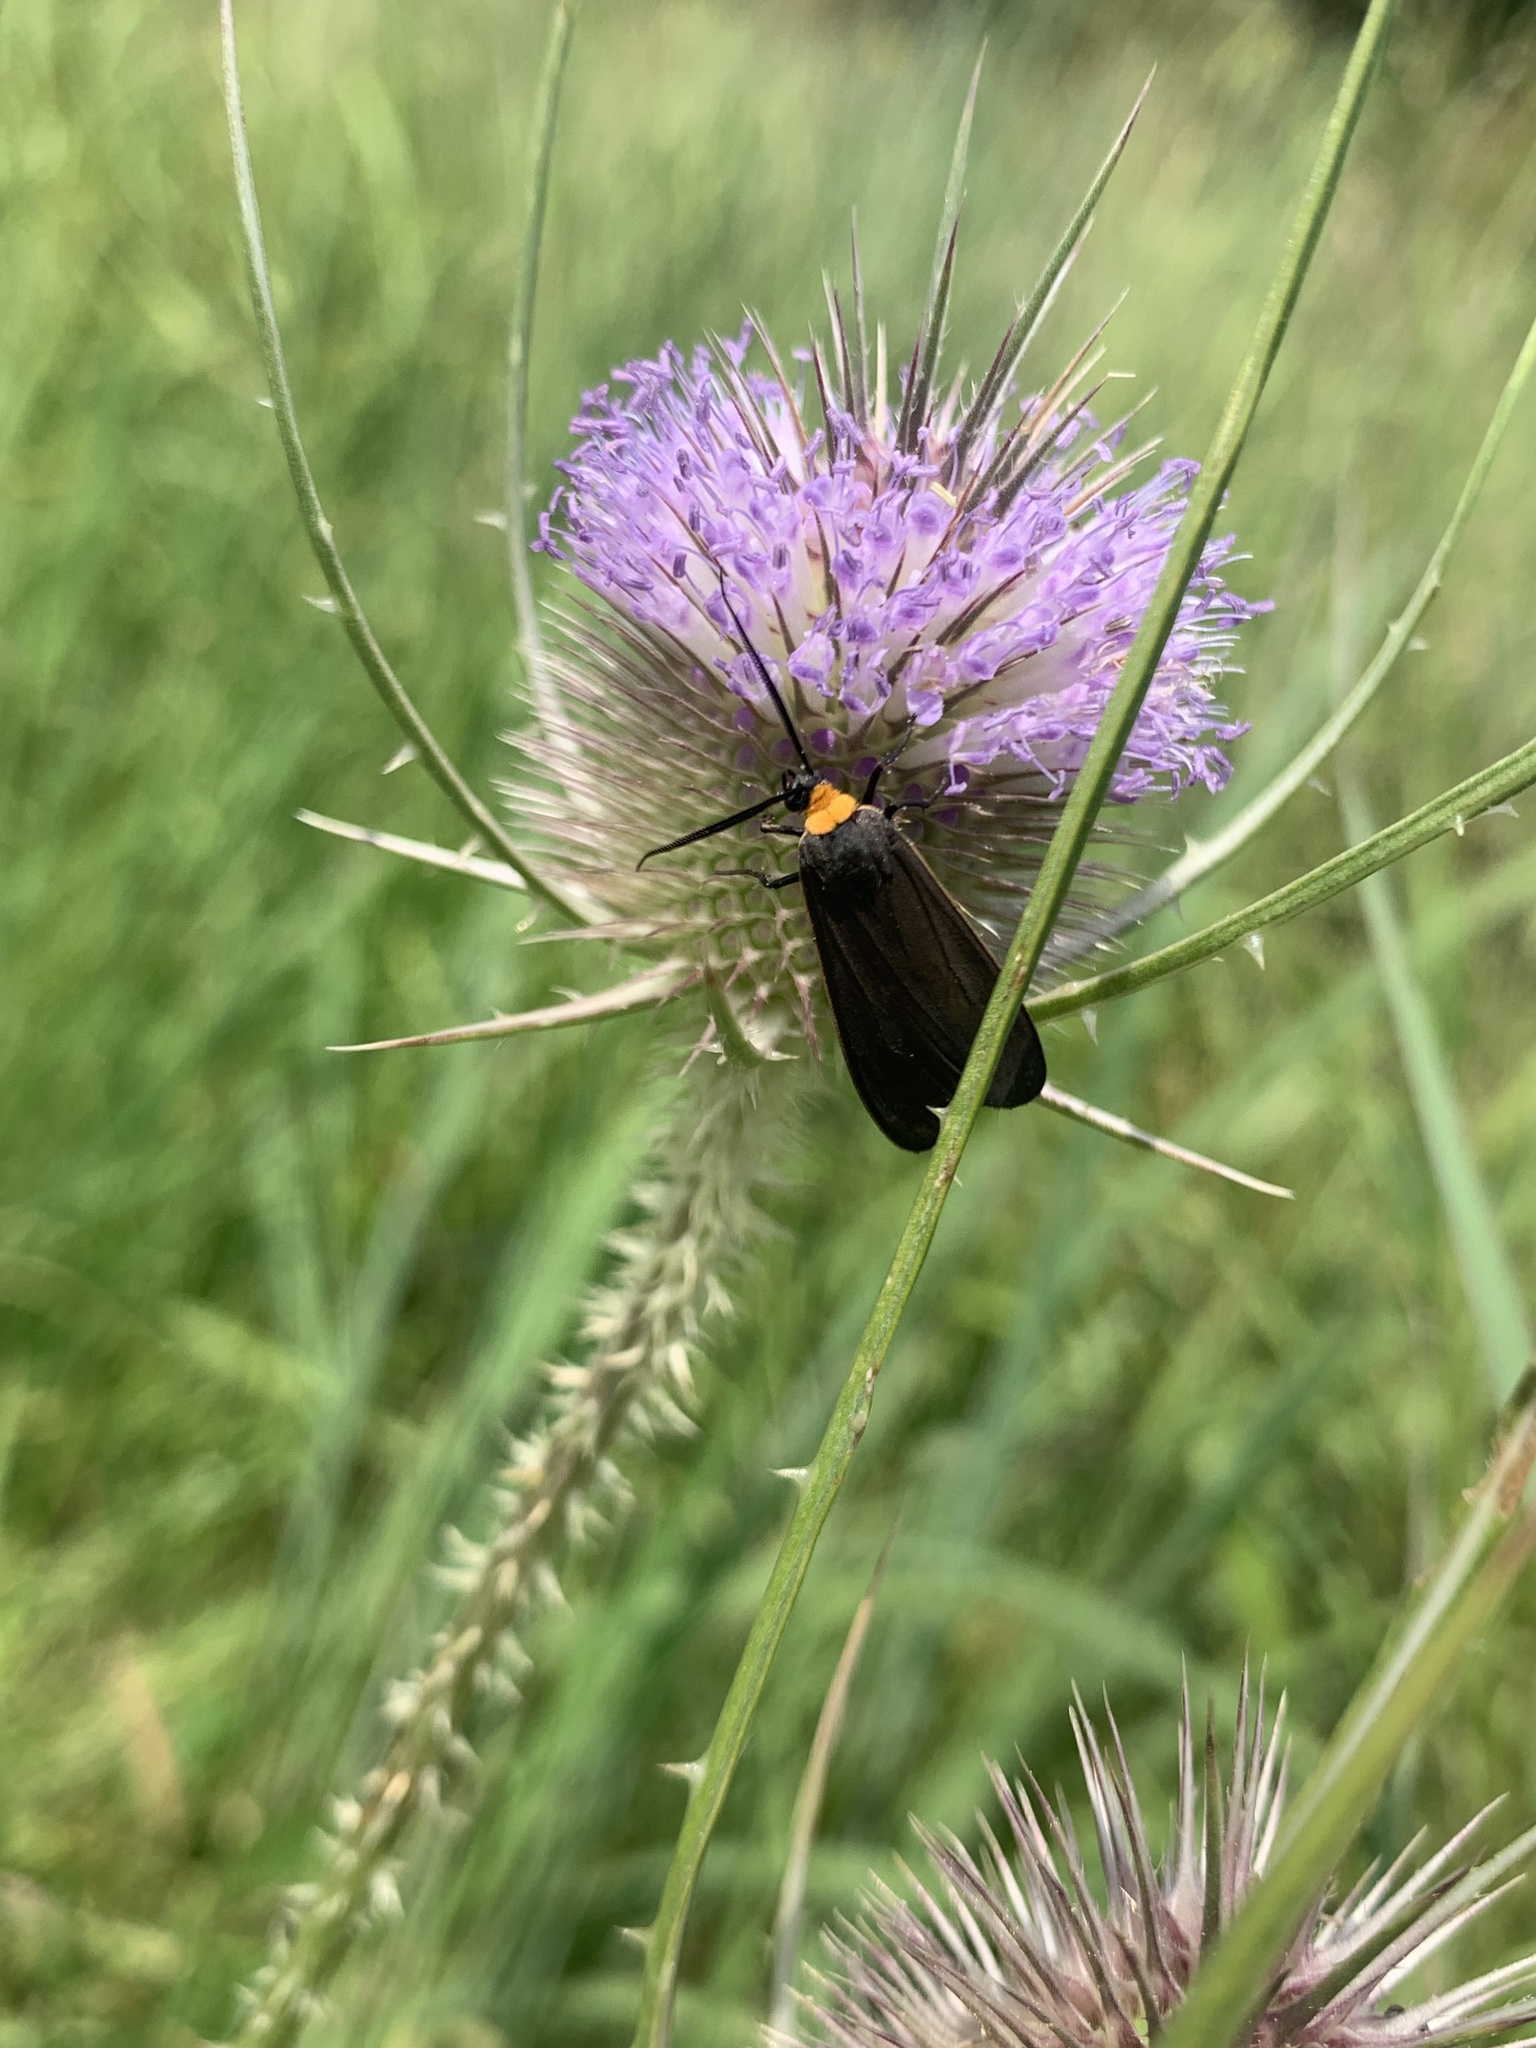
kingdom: Animalia
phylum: Arthropoda
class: Insecta
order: Lepidoptera
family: Erebidae
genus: Cisseps
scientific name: Cisseps fulvicollis
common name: Yellow-collared scape moth
